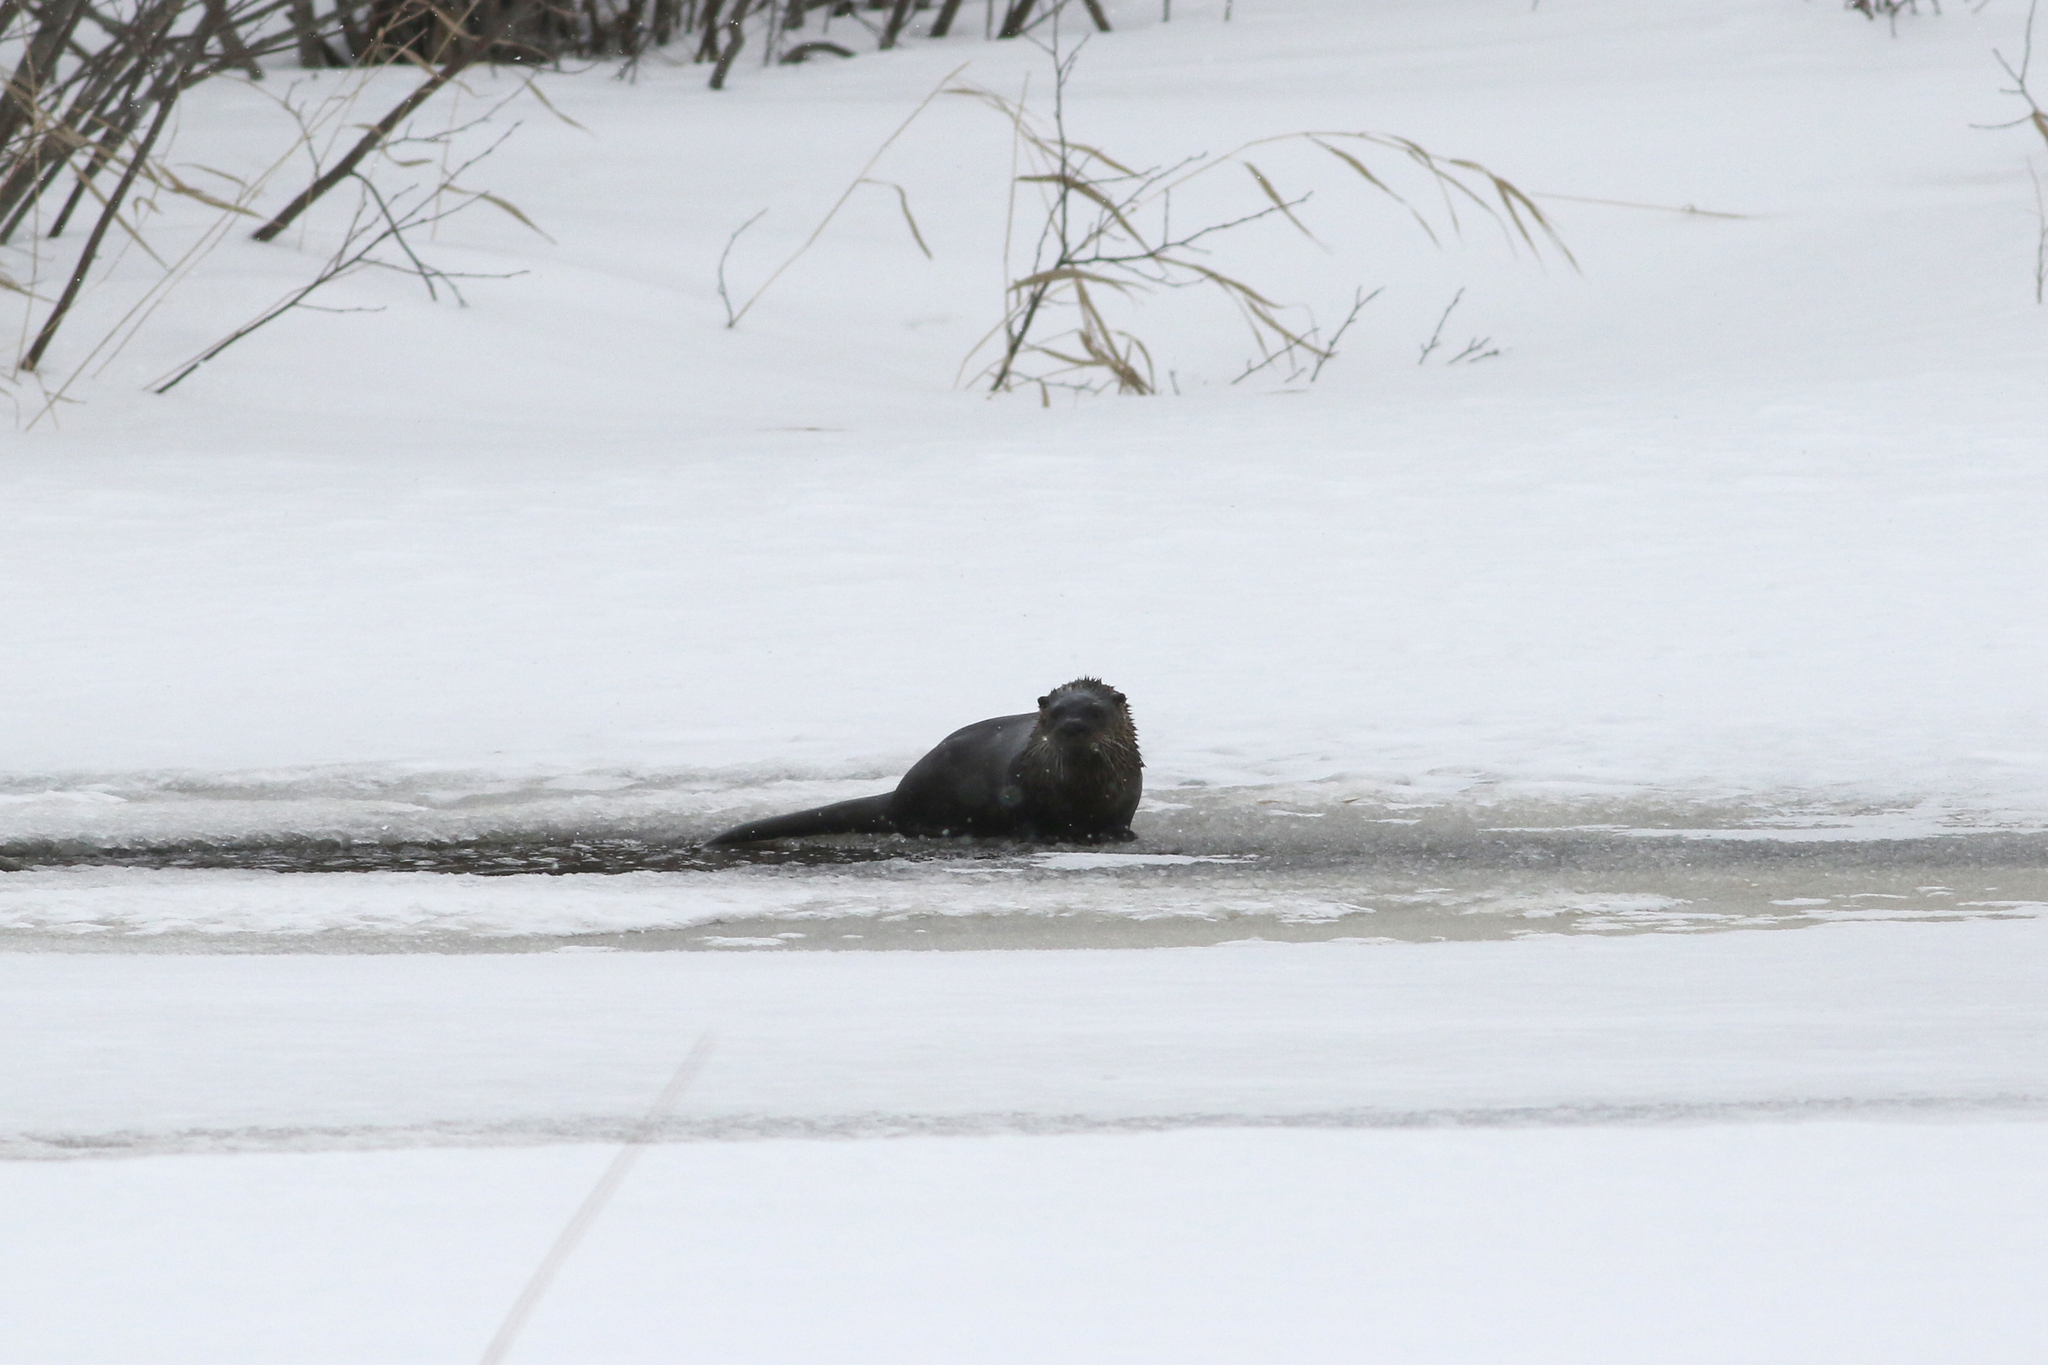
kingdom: Animalia
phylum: Chordata
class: Mammalia
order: Carnivora
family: Mustelidae
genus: Lontra
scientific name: Lontra canadensis
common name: North american river otter
